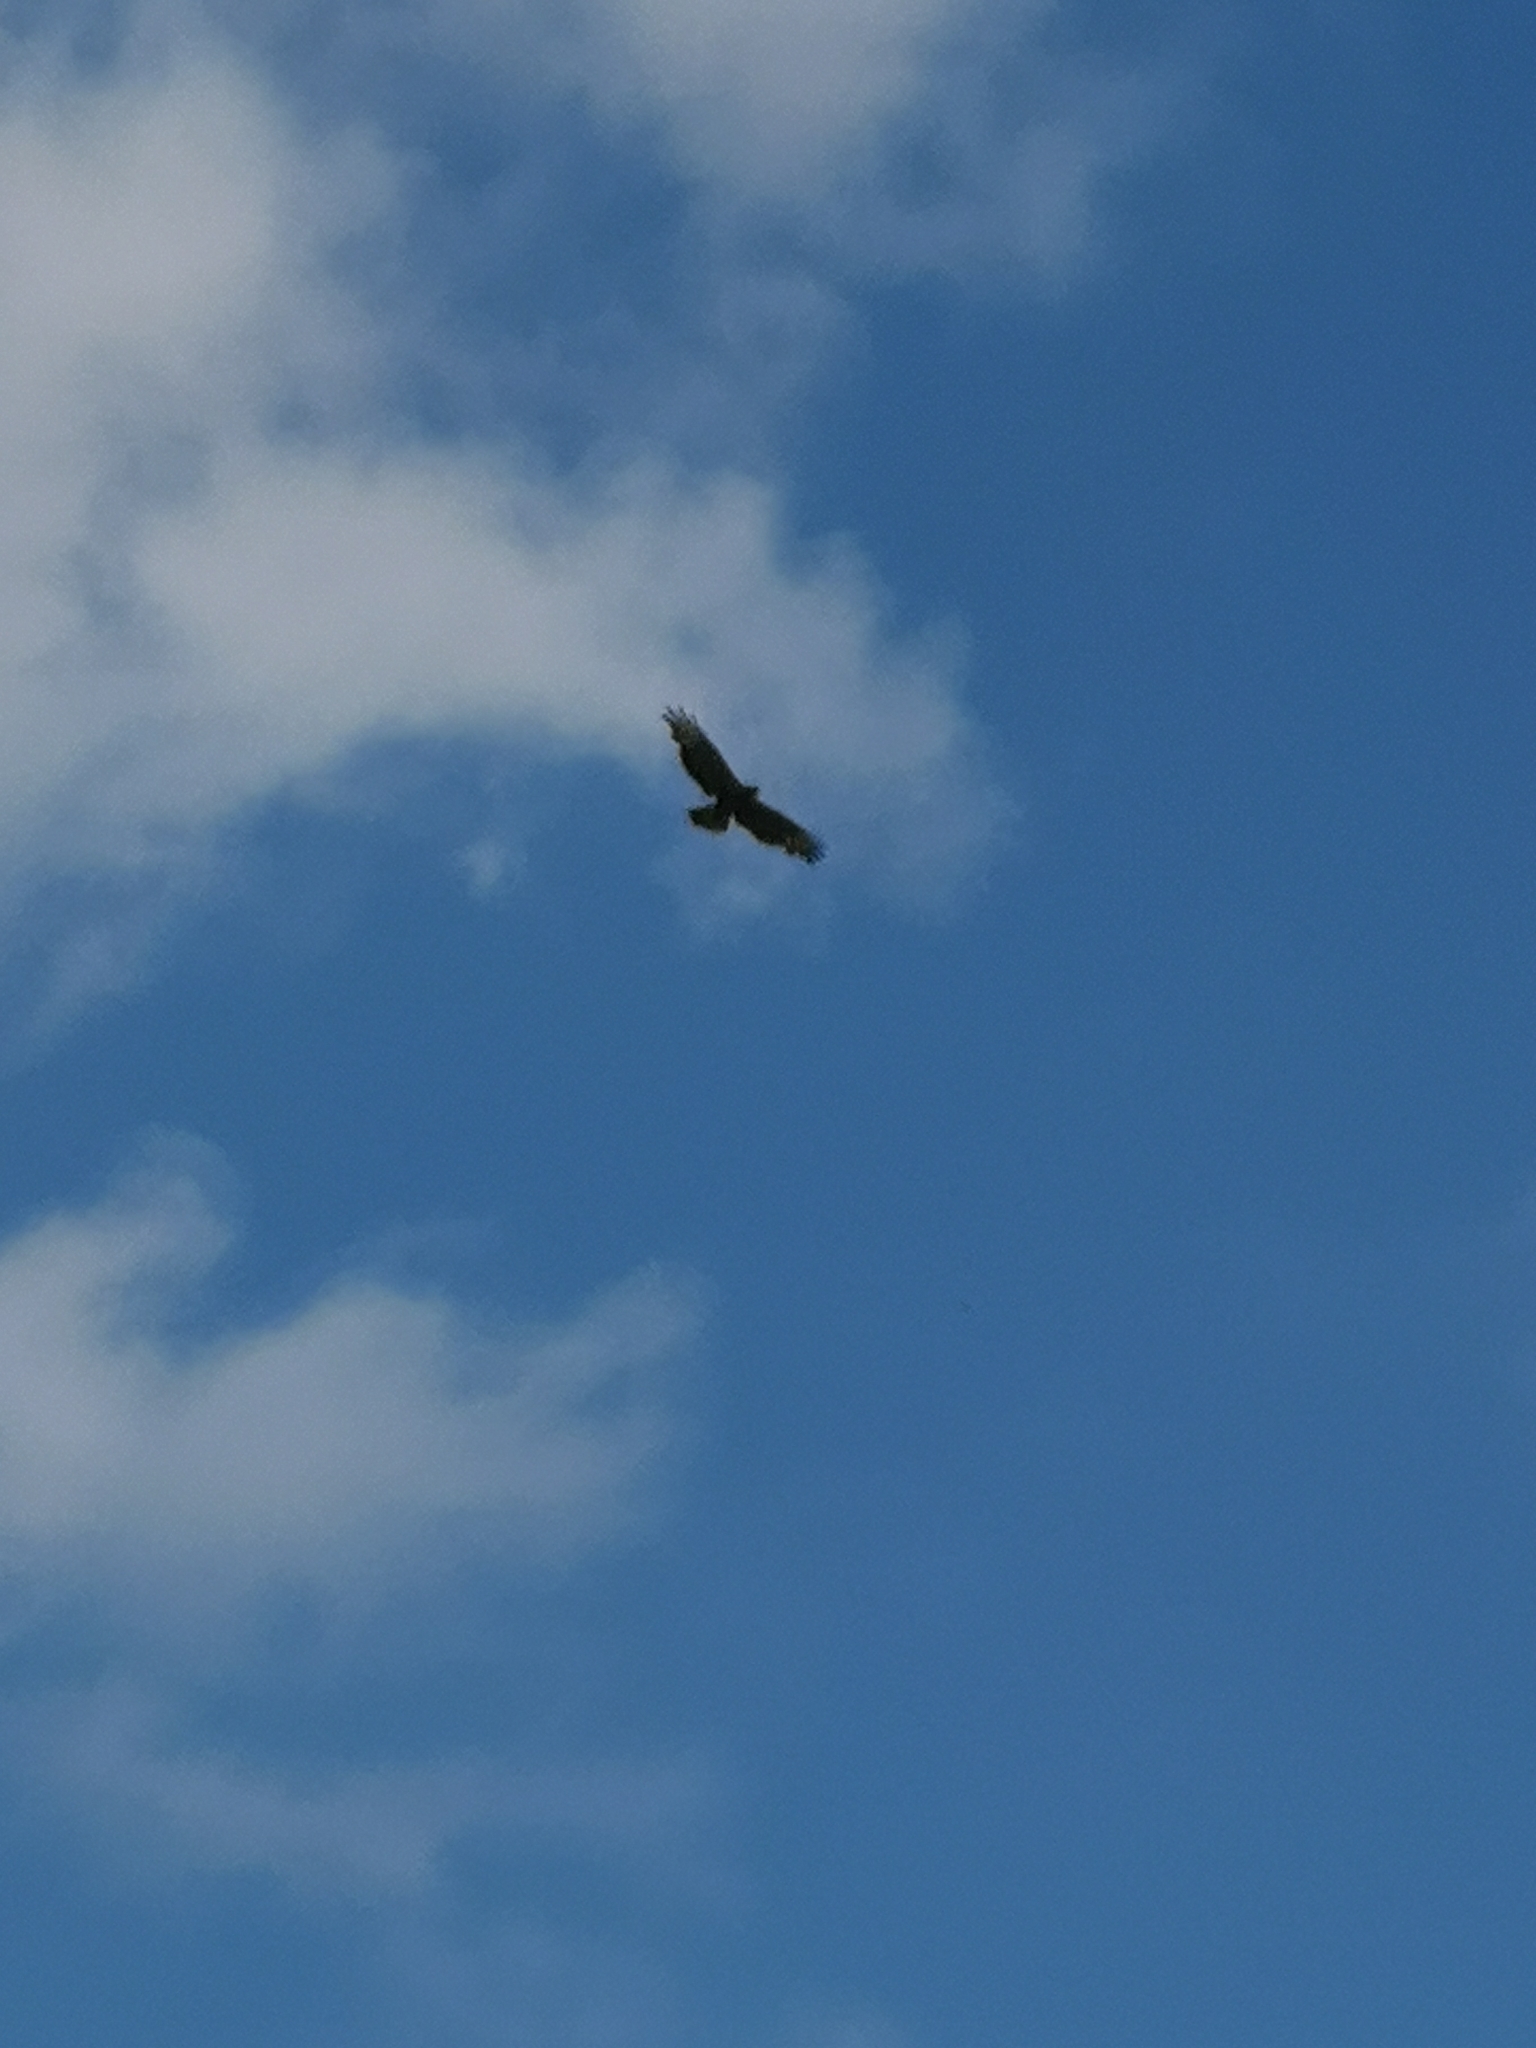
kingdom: Animalia
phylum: Chordata
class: Aves
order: Accipitriformes
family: Accipitridae
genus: Buteo
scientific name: Buteo buteo
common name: Common buzzard
